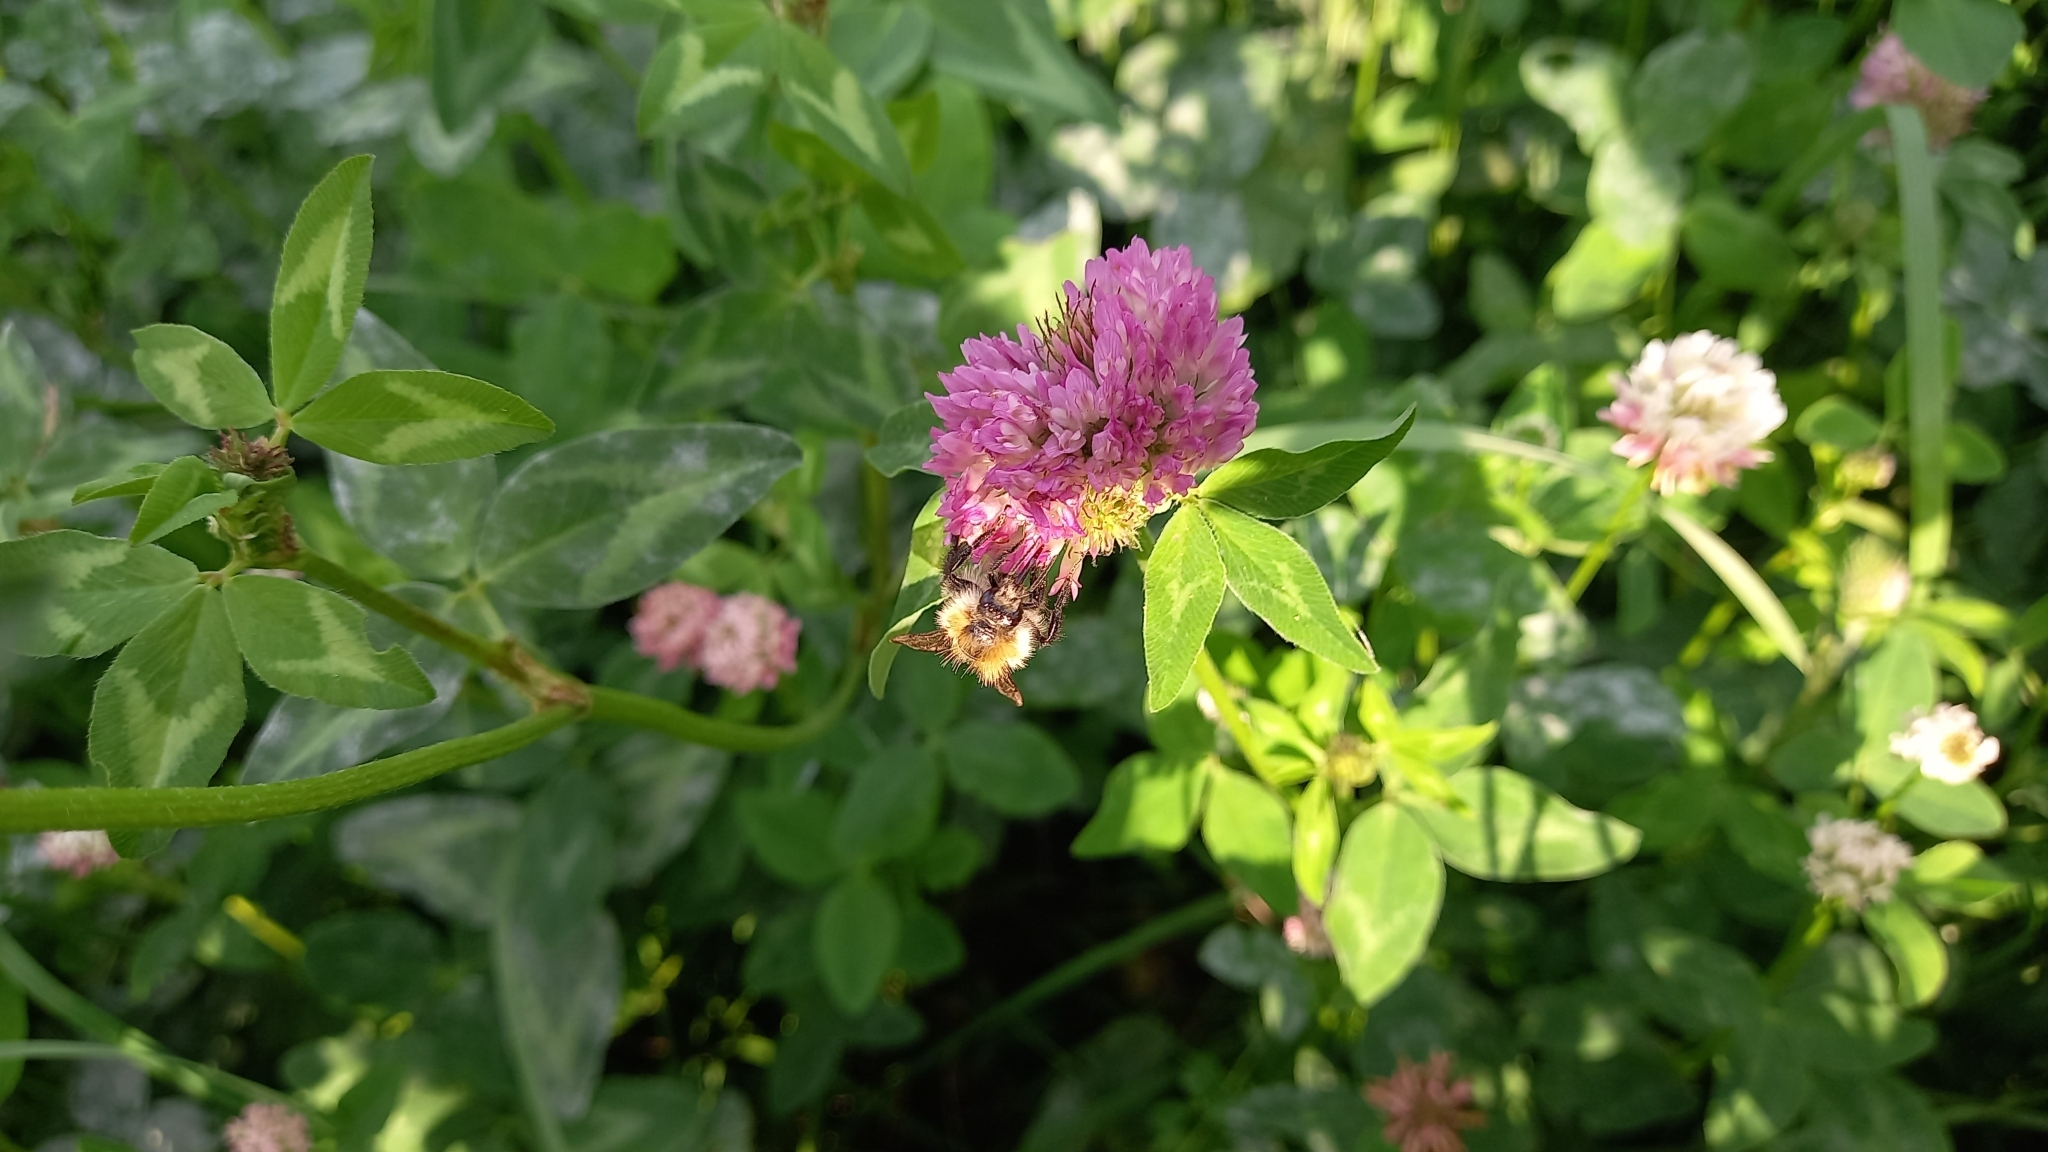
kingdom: Animalia
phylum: Arthropoda
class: Insecta
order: Hymenoptera
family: Apidae
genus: Bombus
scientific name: Bombus pascuorum
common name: Common carder bee
